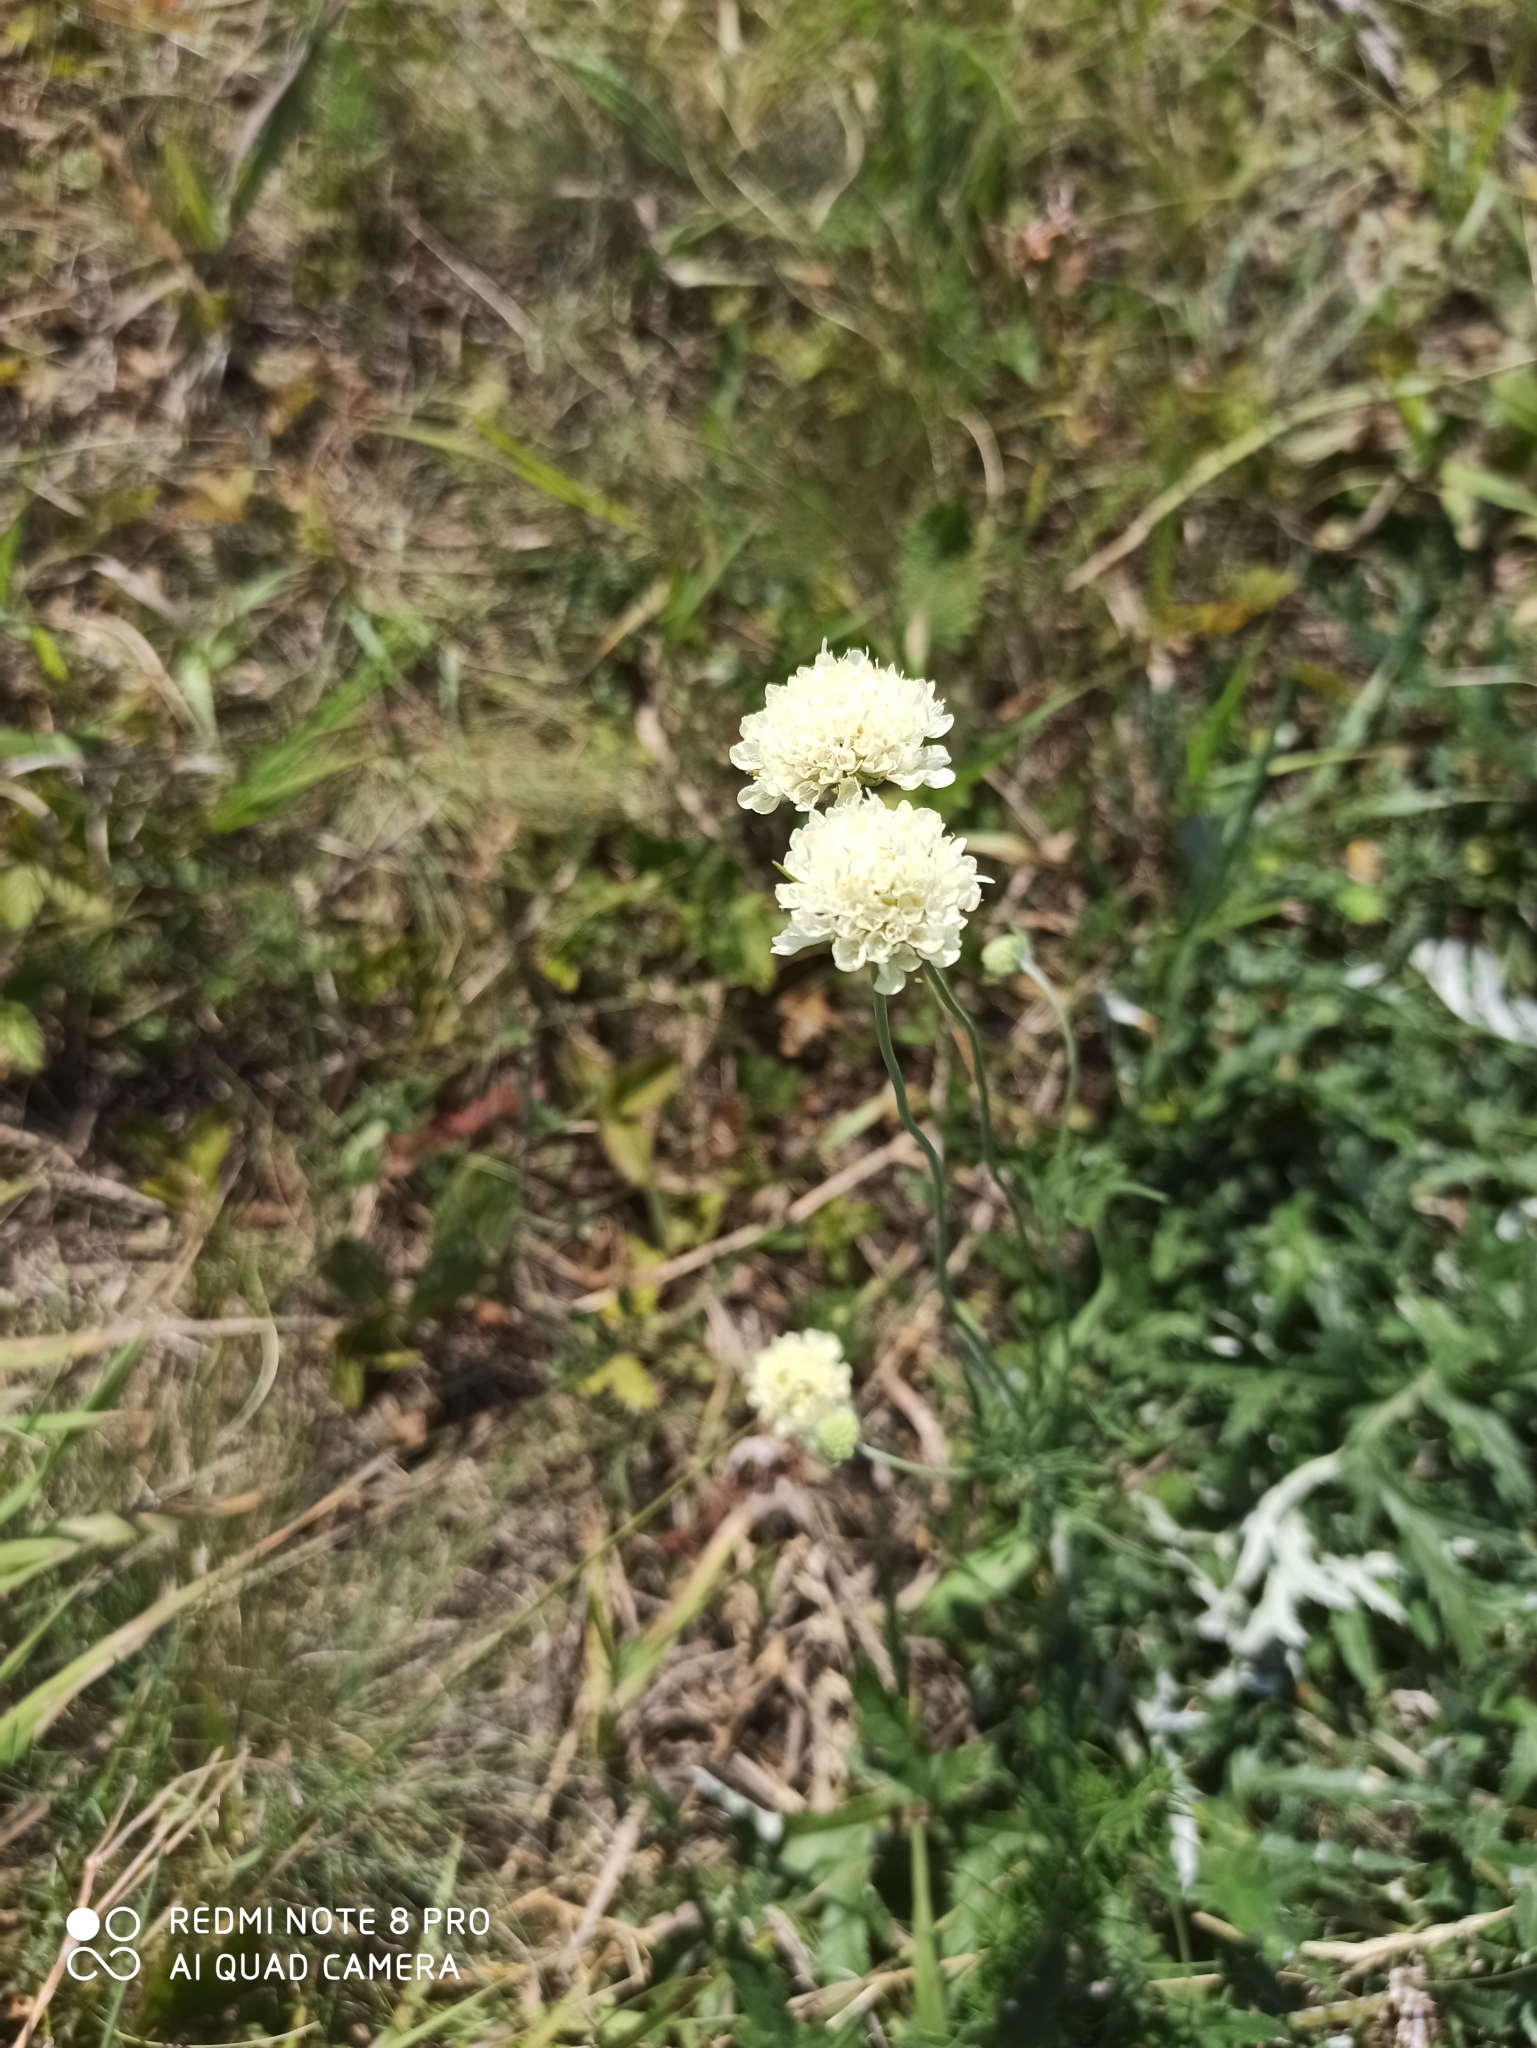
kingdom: Plantae
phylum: Tracheophyta
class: Magnoliopsida
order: Dipsacales
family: Caprifoliaceae
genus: Scabiosa
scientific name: Scabiosa ochroleuca
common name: Cream pincushions
